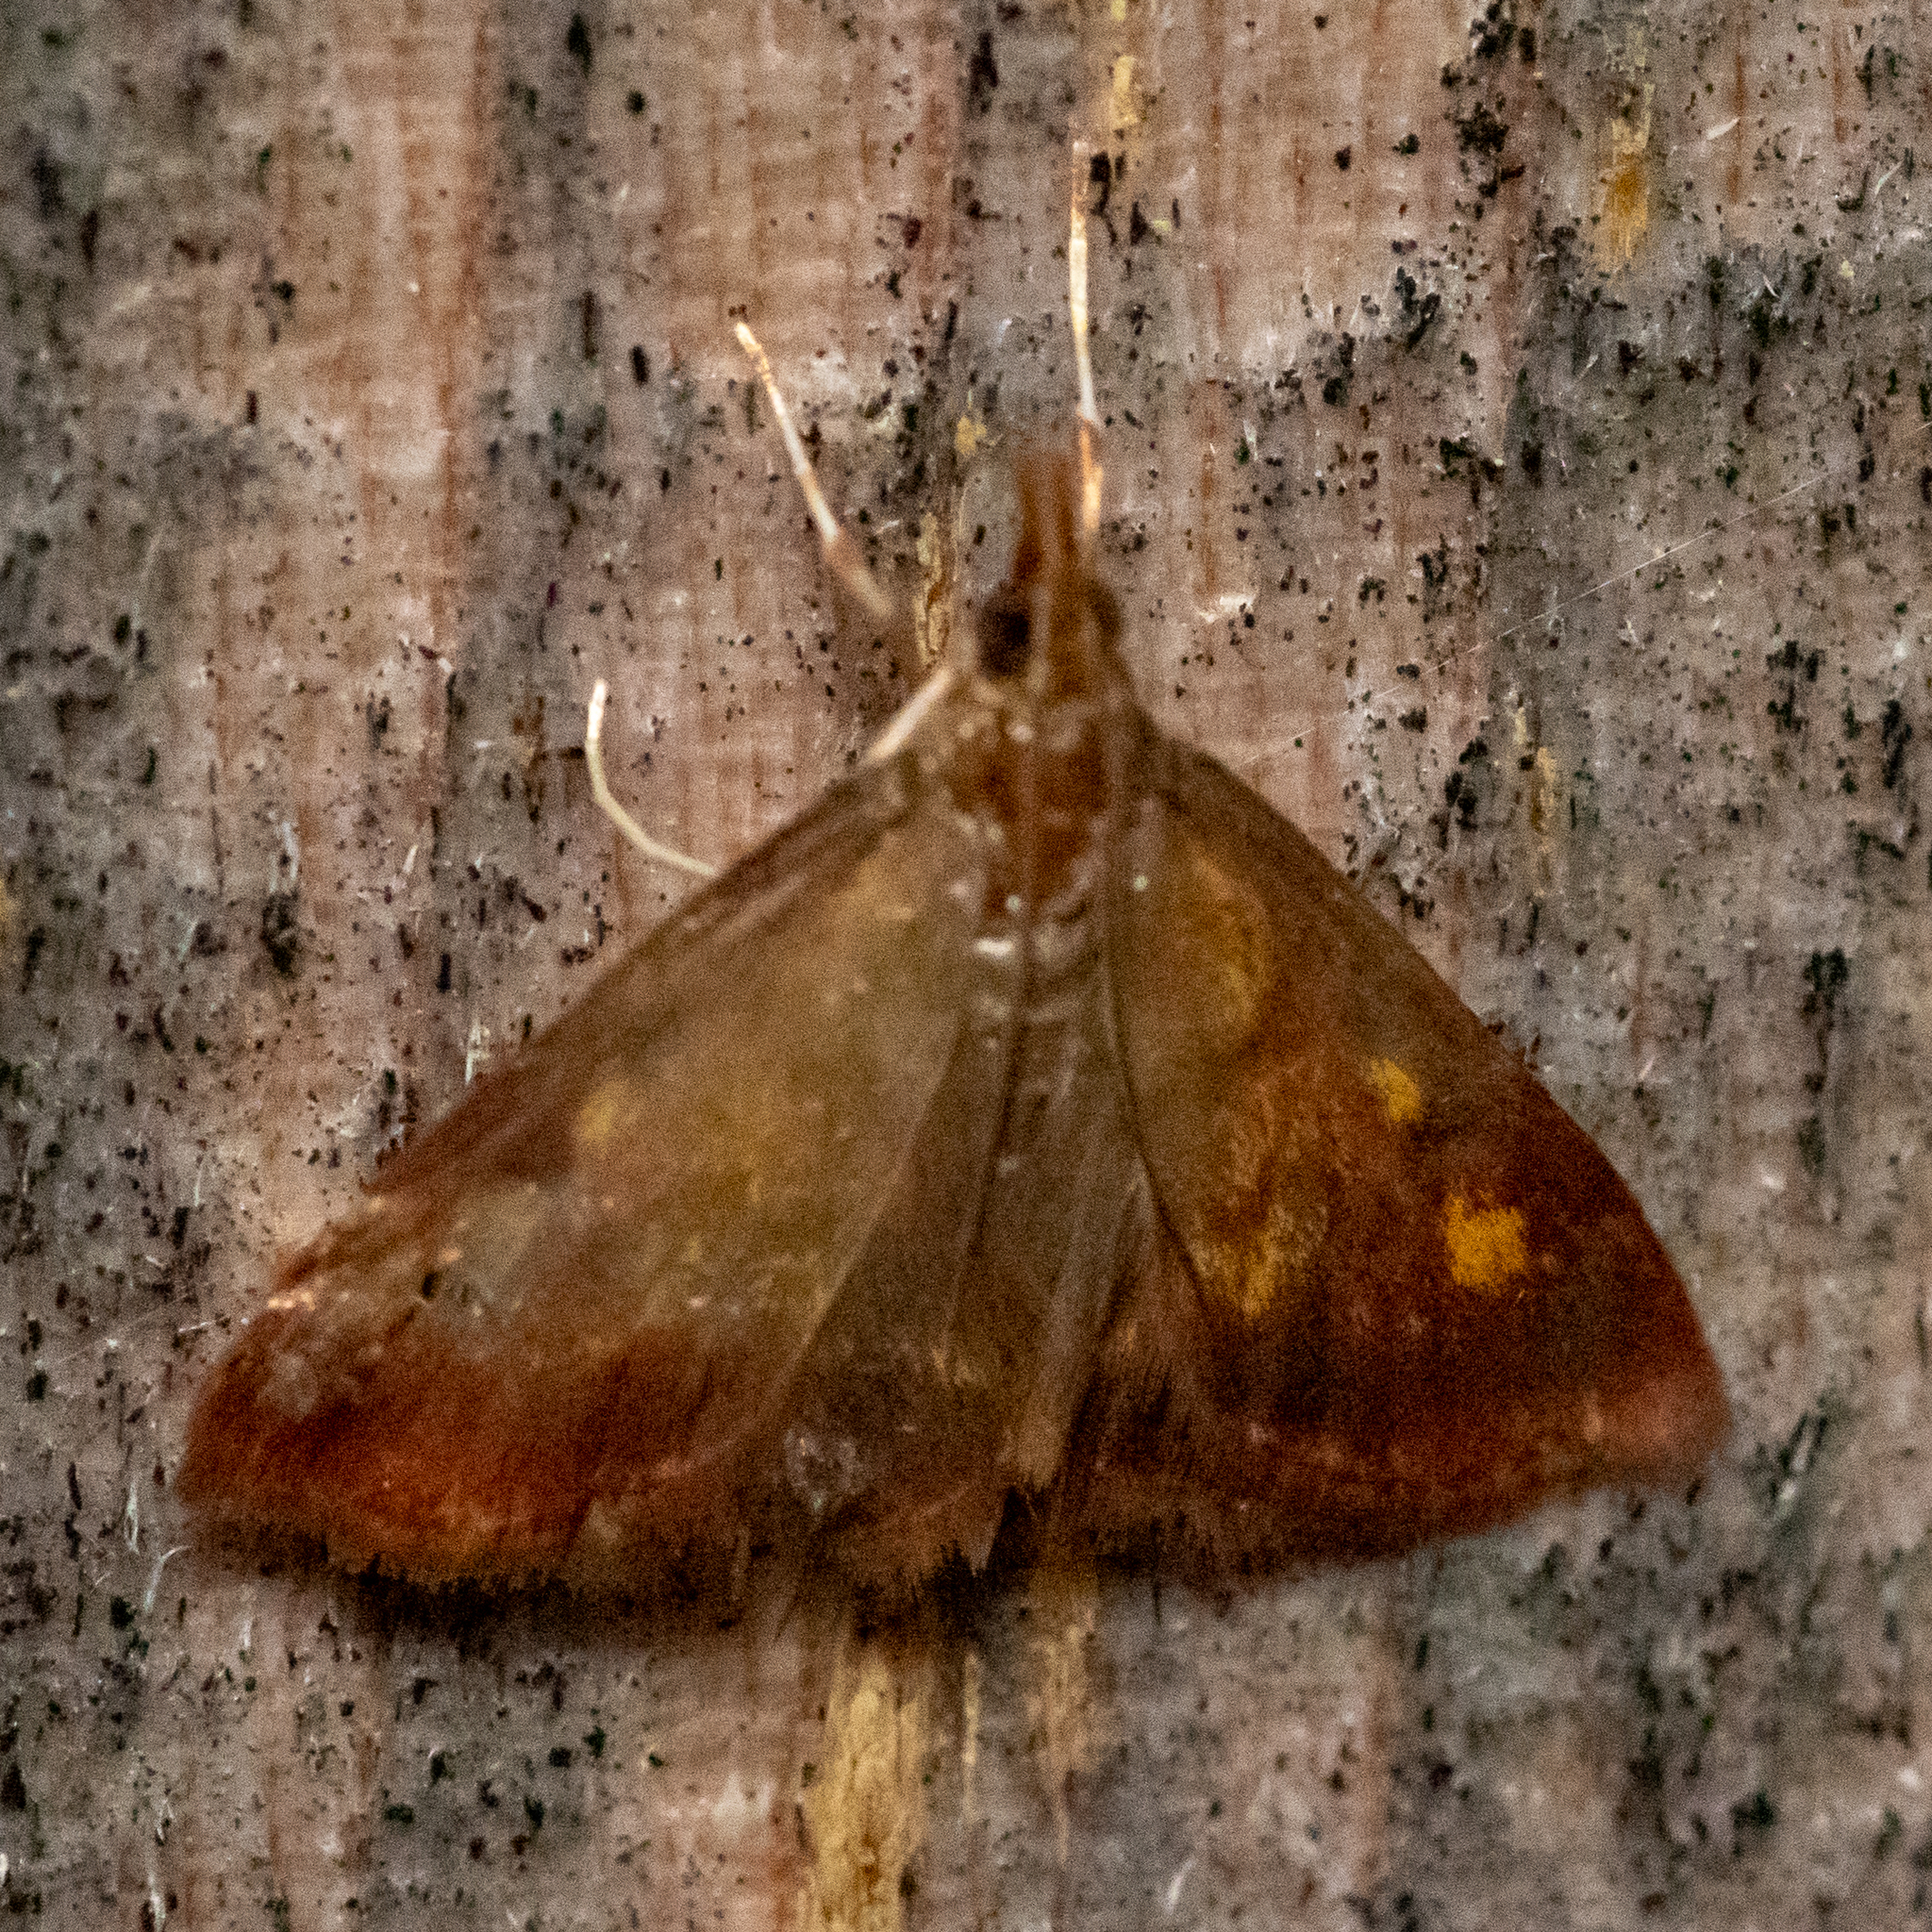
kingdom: Animalia
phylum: Arthropoda
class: Insecta
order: Lepidoptera
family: Crambidae
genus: Pyrausta
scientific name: Pyrausta acrionalis
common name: Mint-loving pyrausta moth
